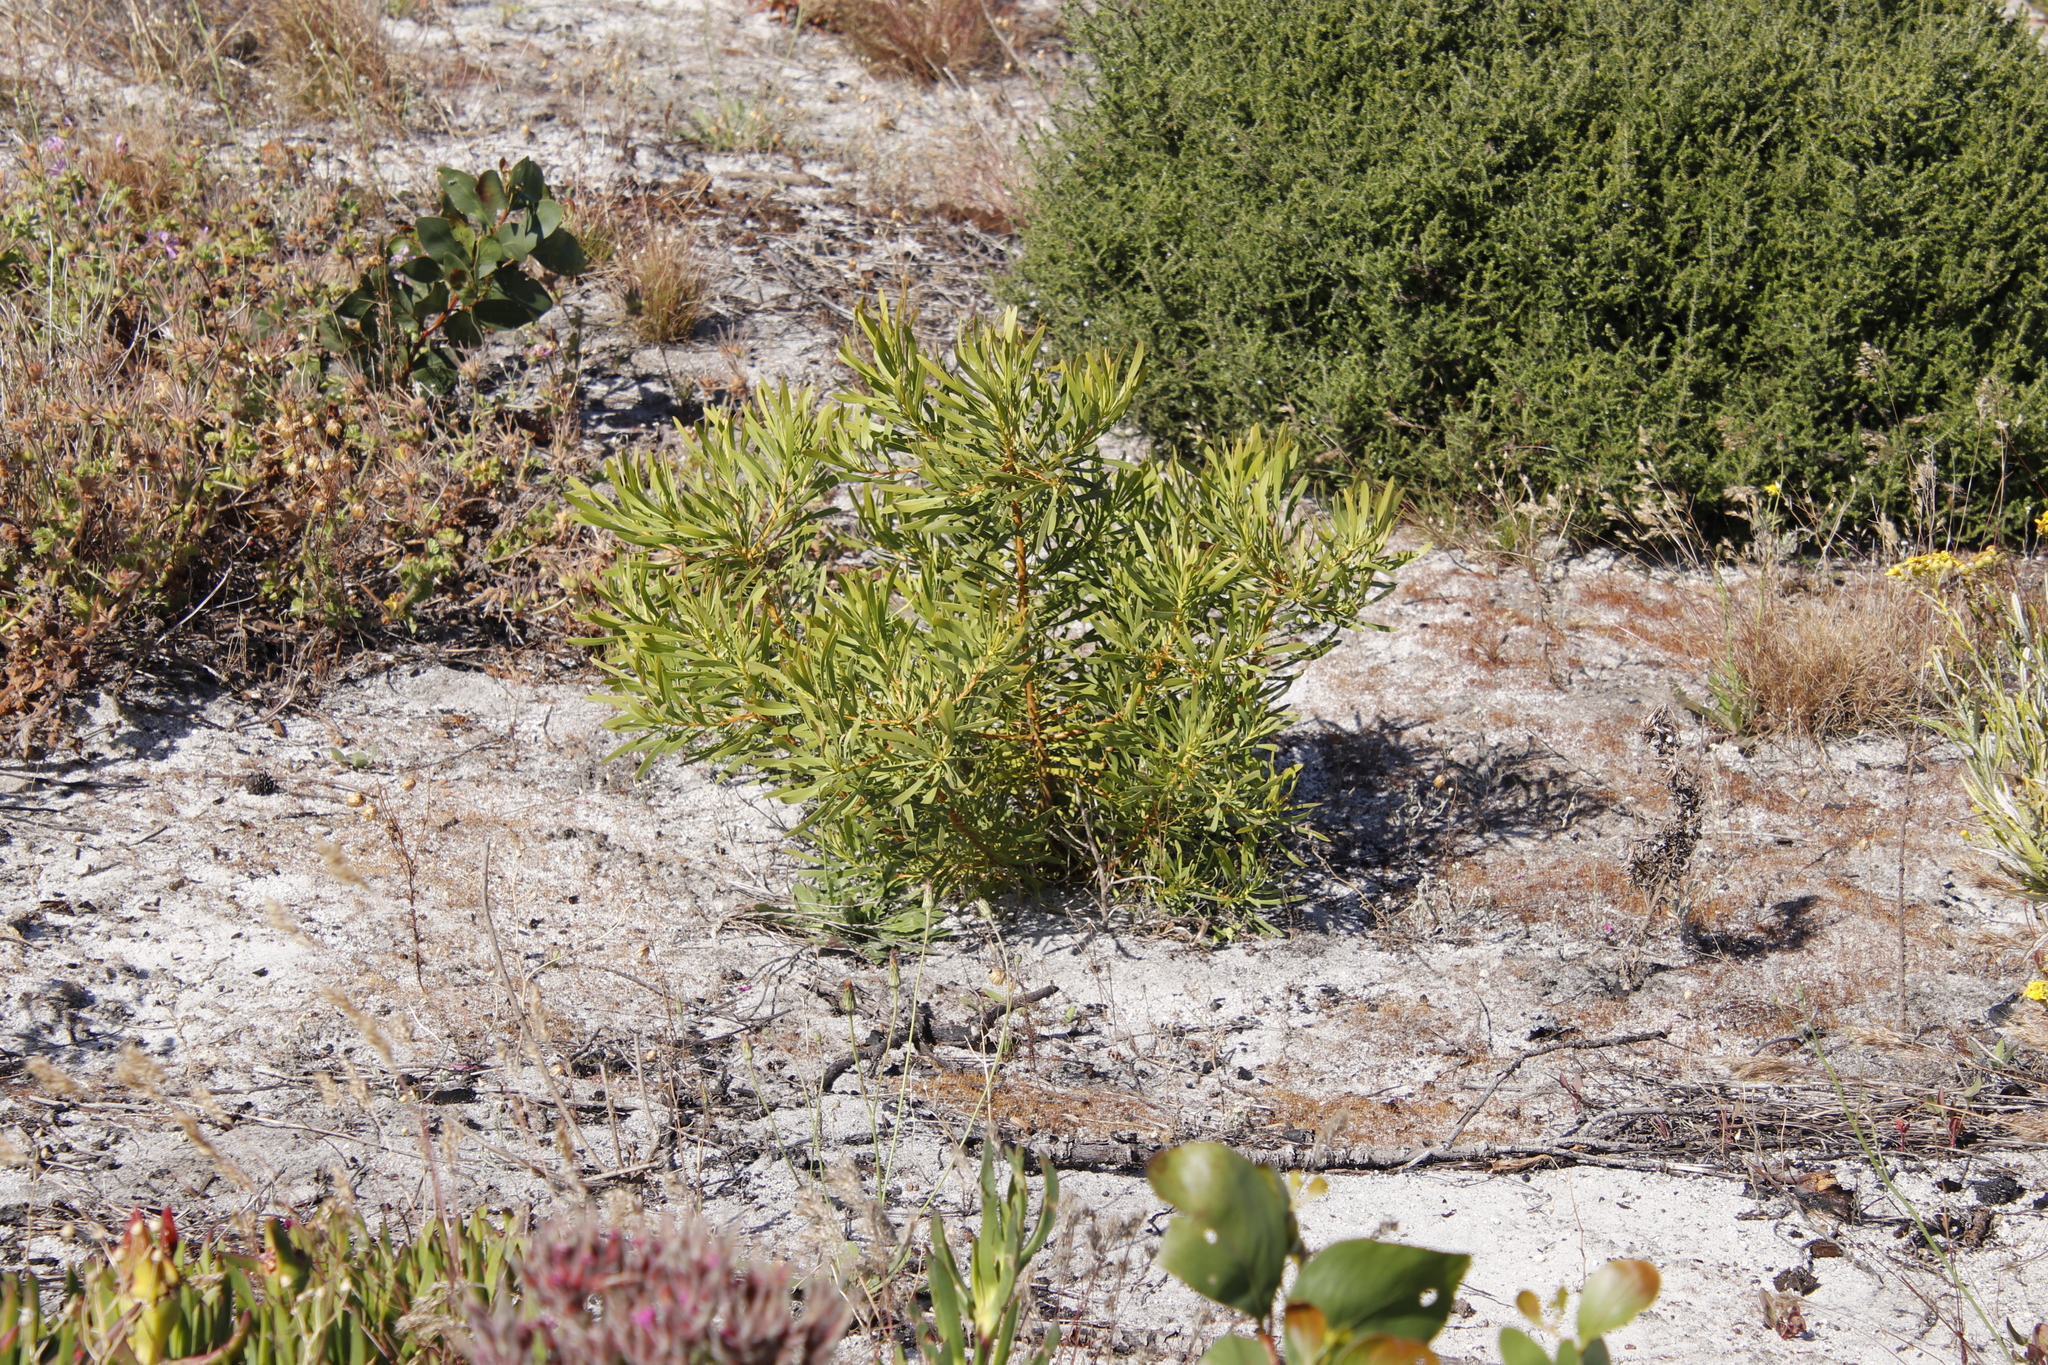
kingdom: Plantae
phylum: Tracheophyta
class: Magnoliopsida
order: Proteales
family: Proteaceae
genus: Protea
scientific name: Protea repens
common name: Sugarbush
